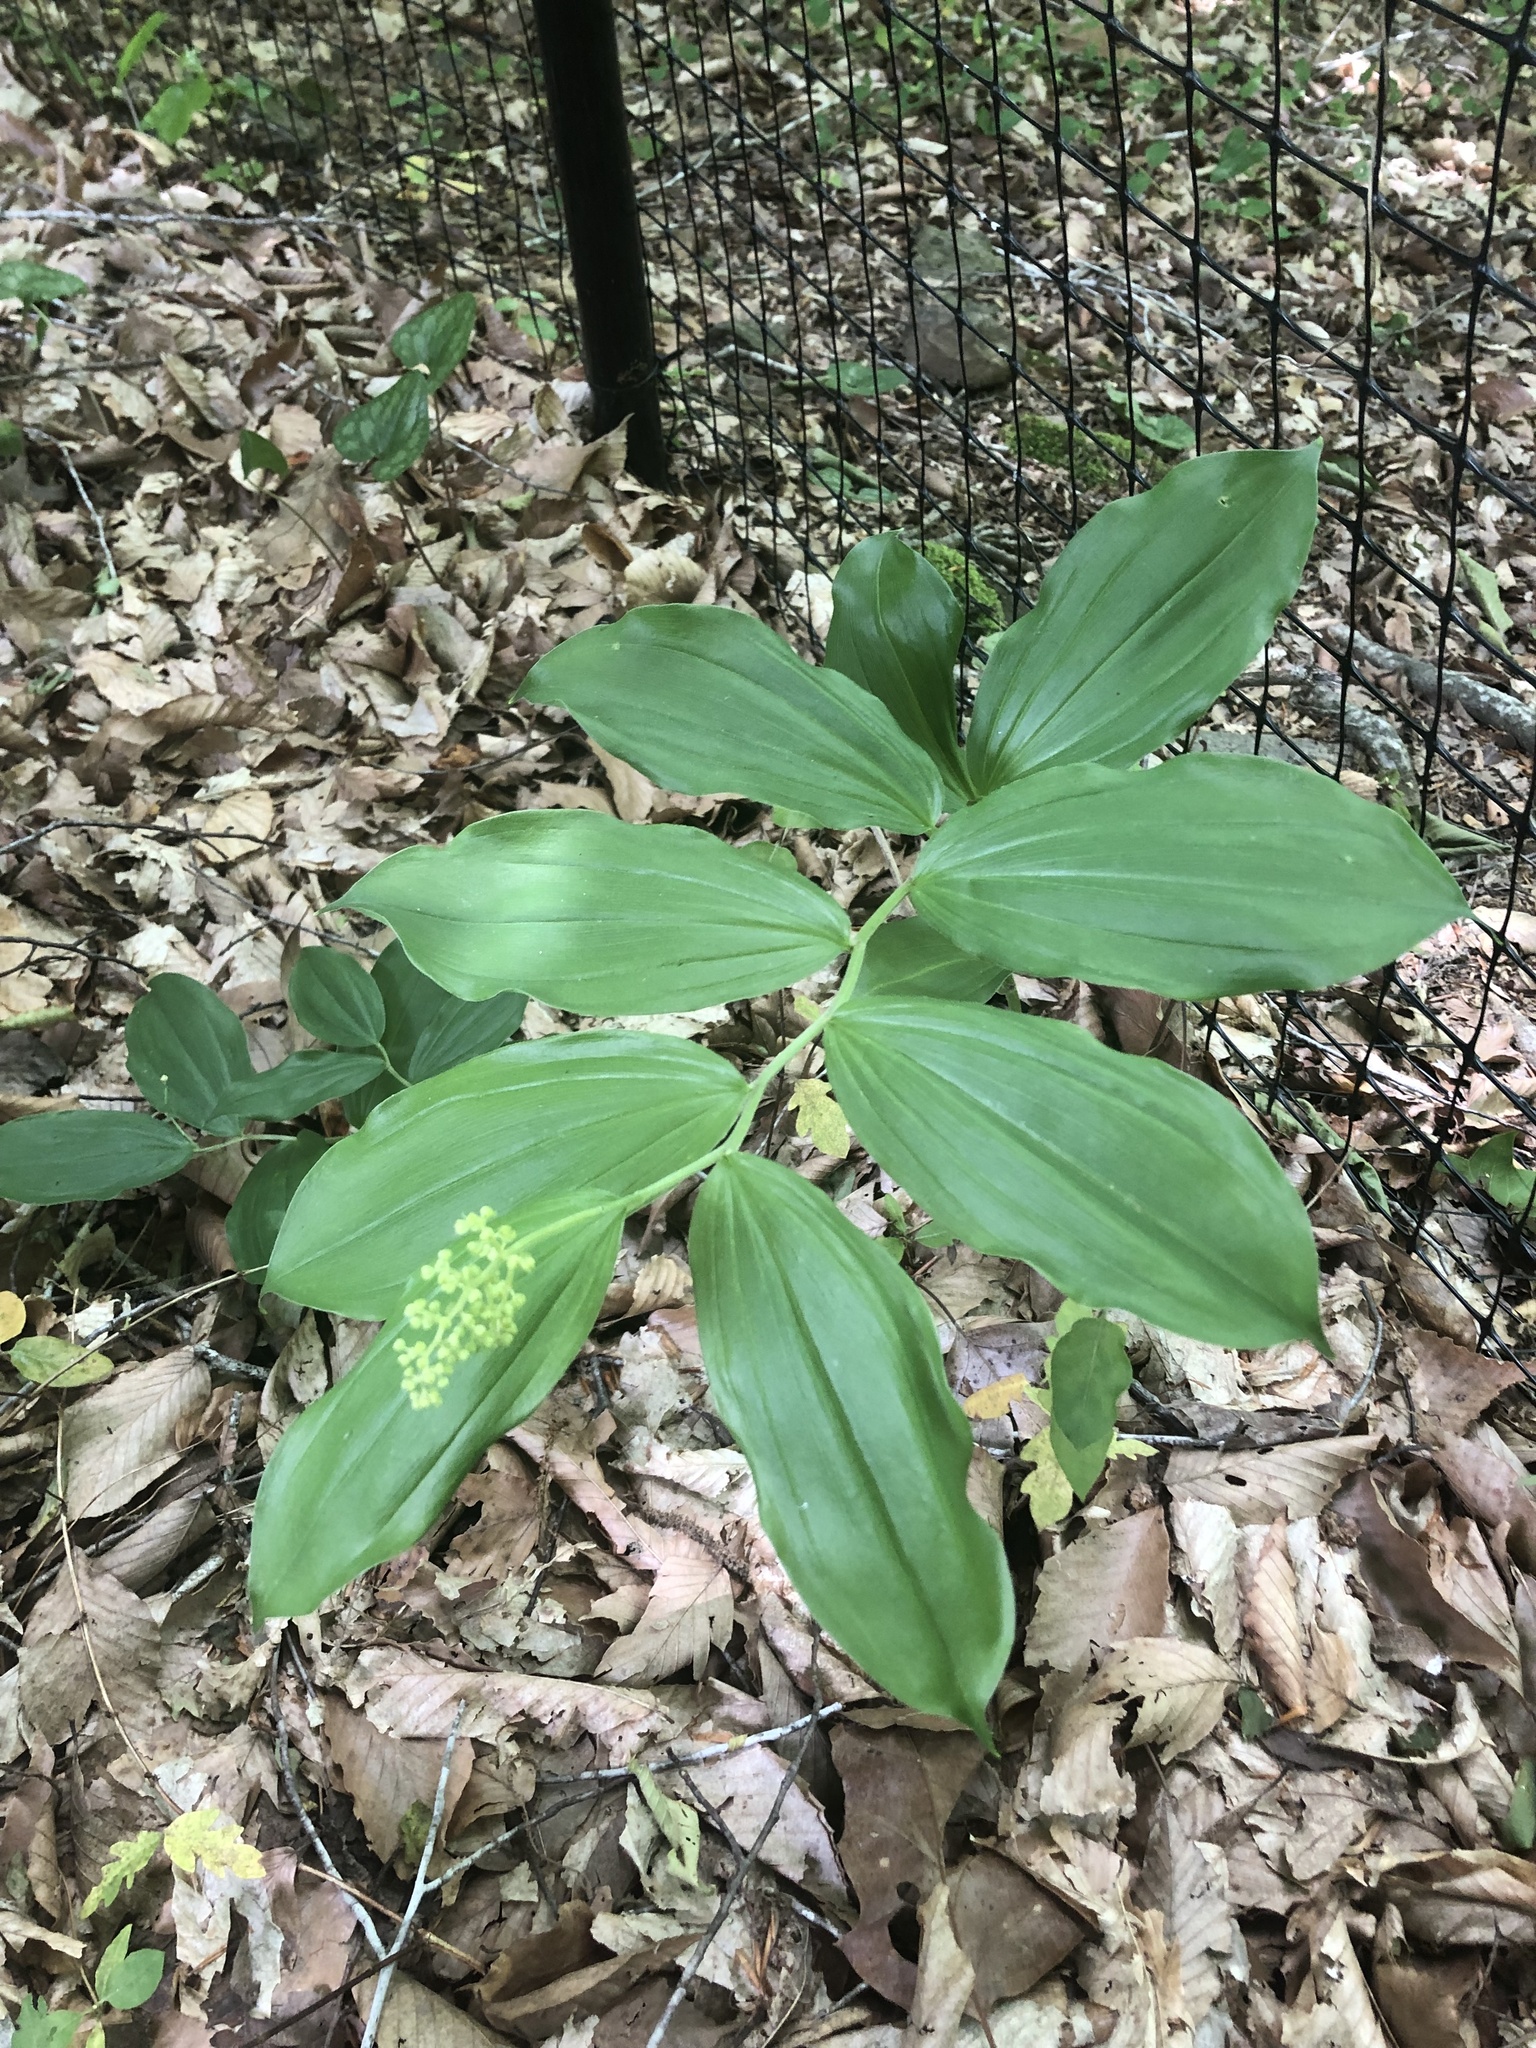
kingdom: Plantae
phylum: Tracheophyta
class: Liliopsida
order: Asparagales
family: Asparagaceae
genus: Maianthemum
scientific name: Maianthemum racemosum
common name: False spikenard
